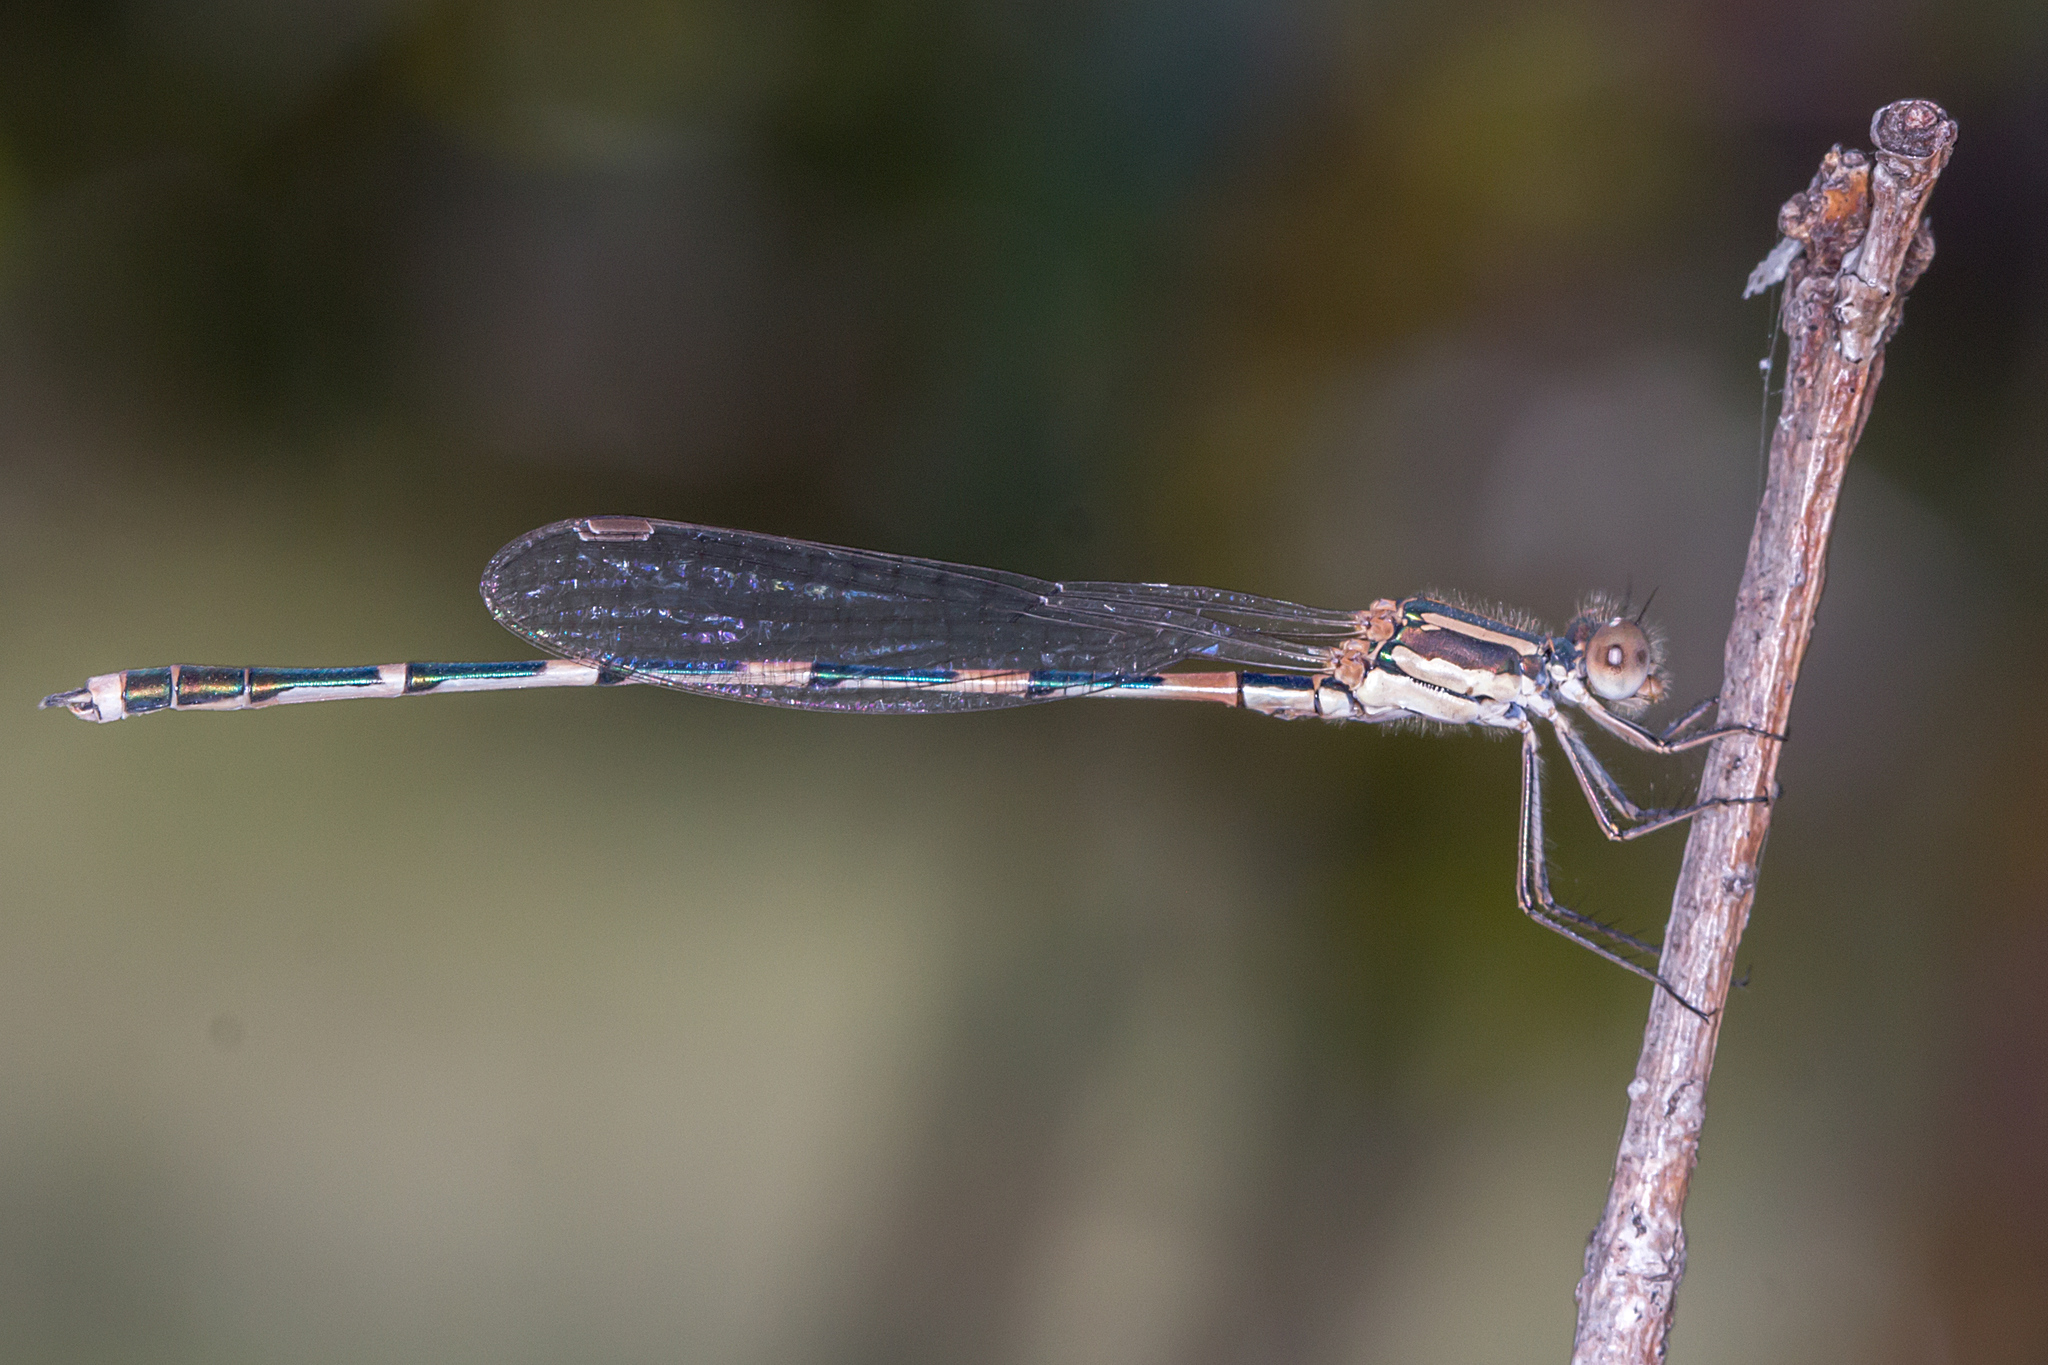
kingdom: Animalia
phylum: Arthropoda
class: Insecta
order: Odonata
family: Lestidae
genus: Austrolestes
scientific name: Austrolestes leda
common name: Wandering ringtail
